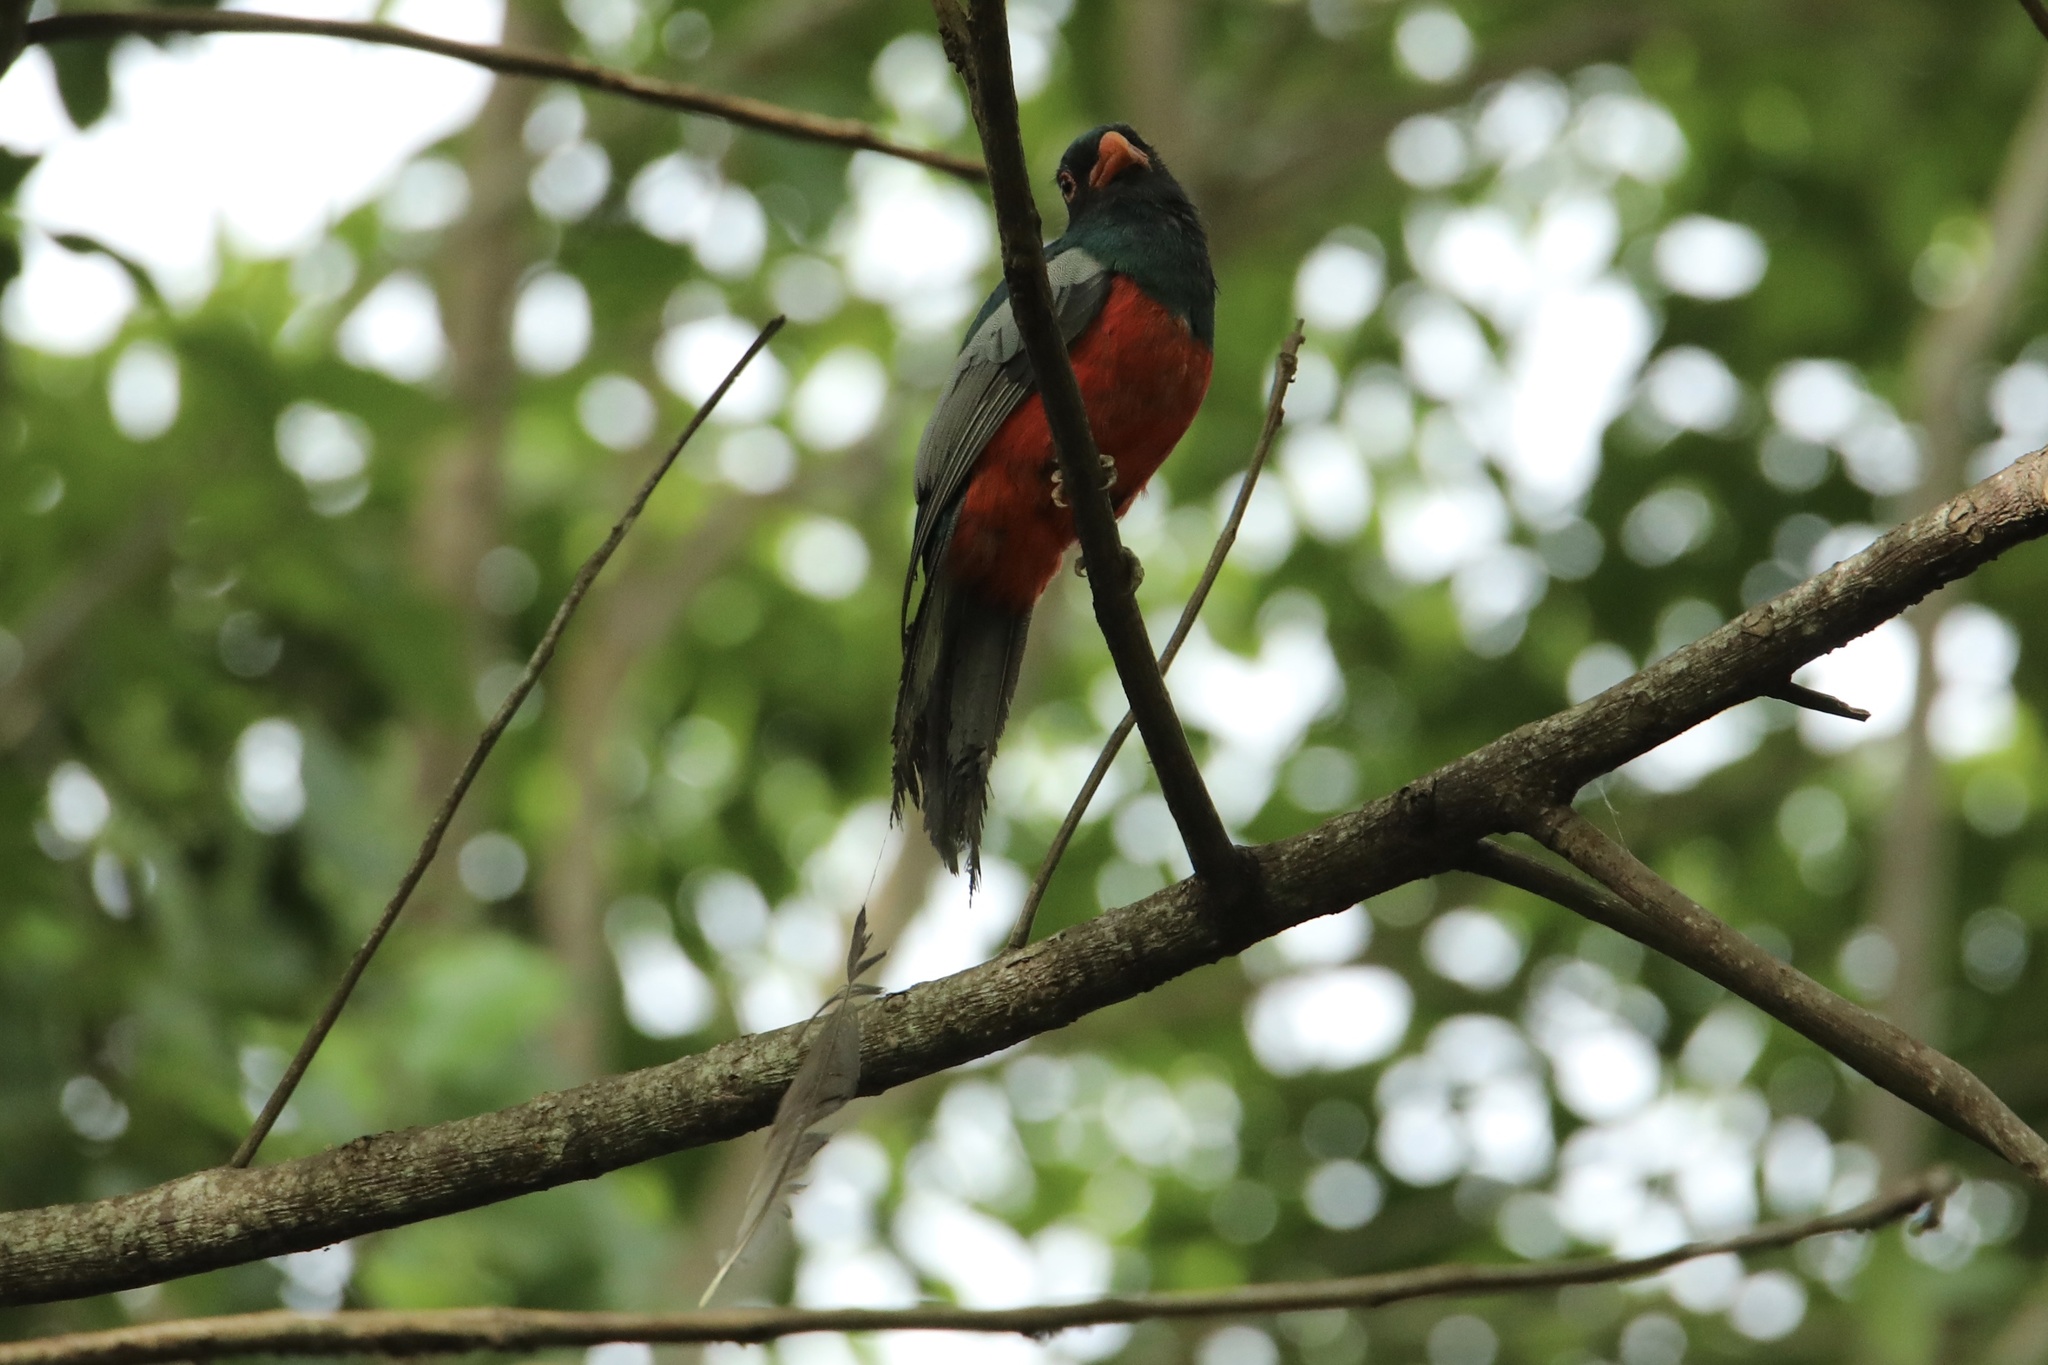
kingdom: Animalia
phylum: Chordata
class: Aves
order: Trogoniformes
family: Trogonidae
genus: Trogon
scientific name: Trogon massena
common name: Slaty-tailed trogon
